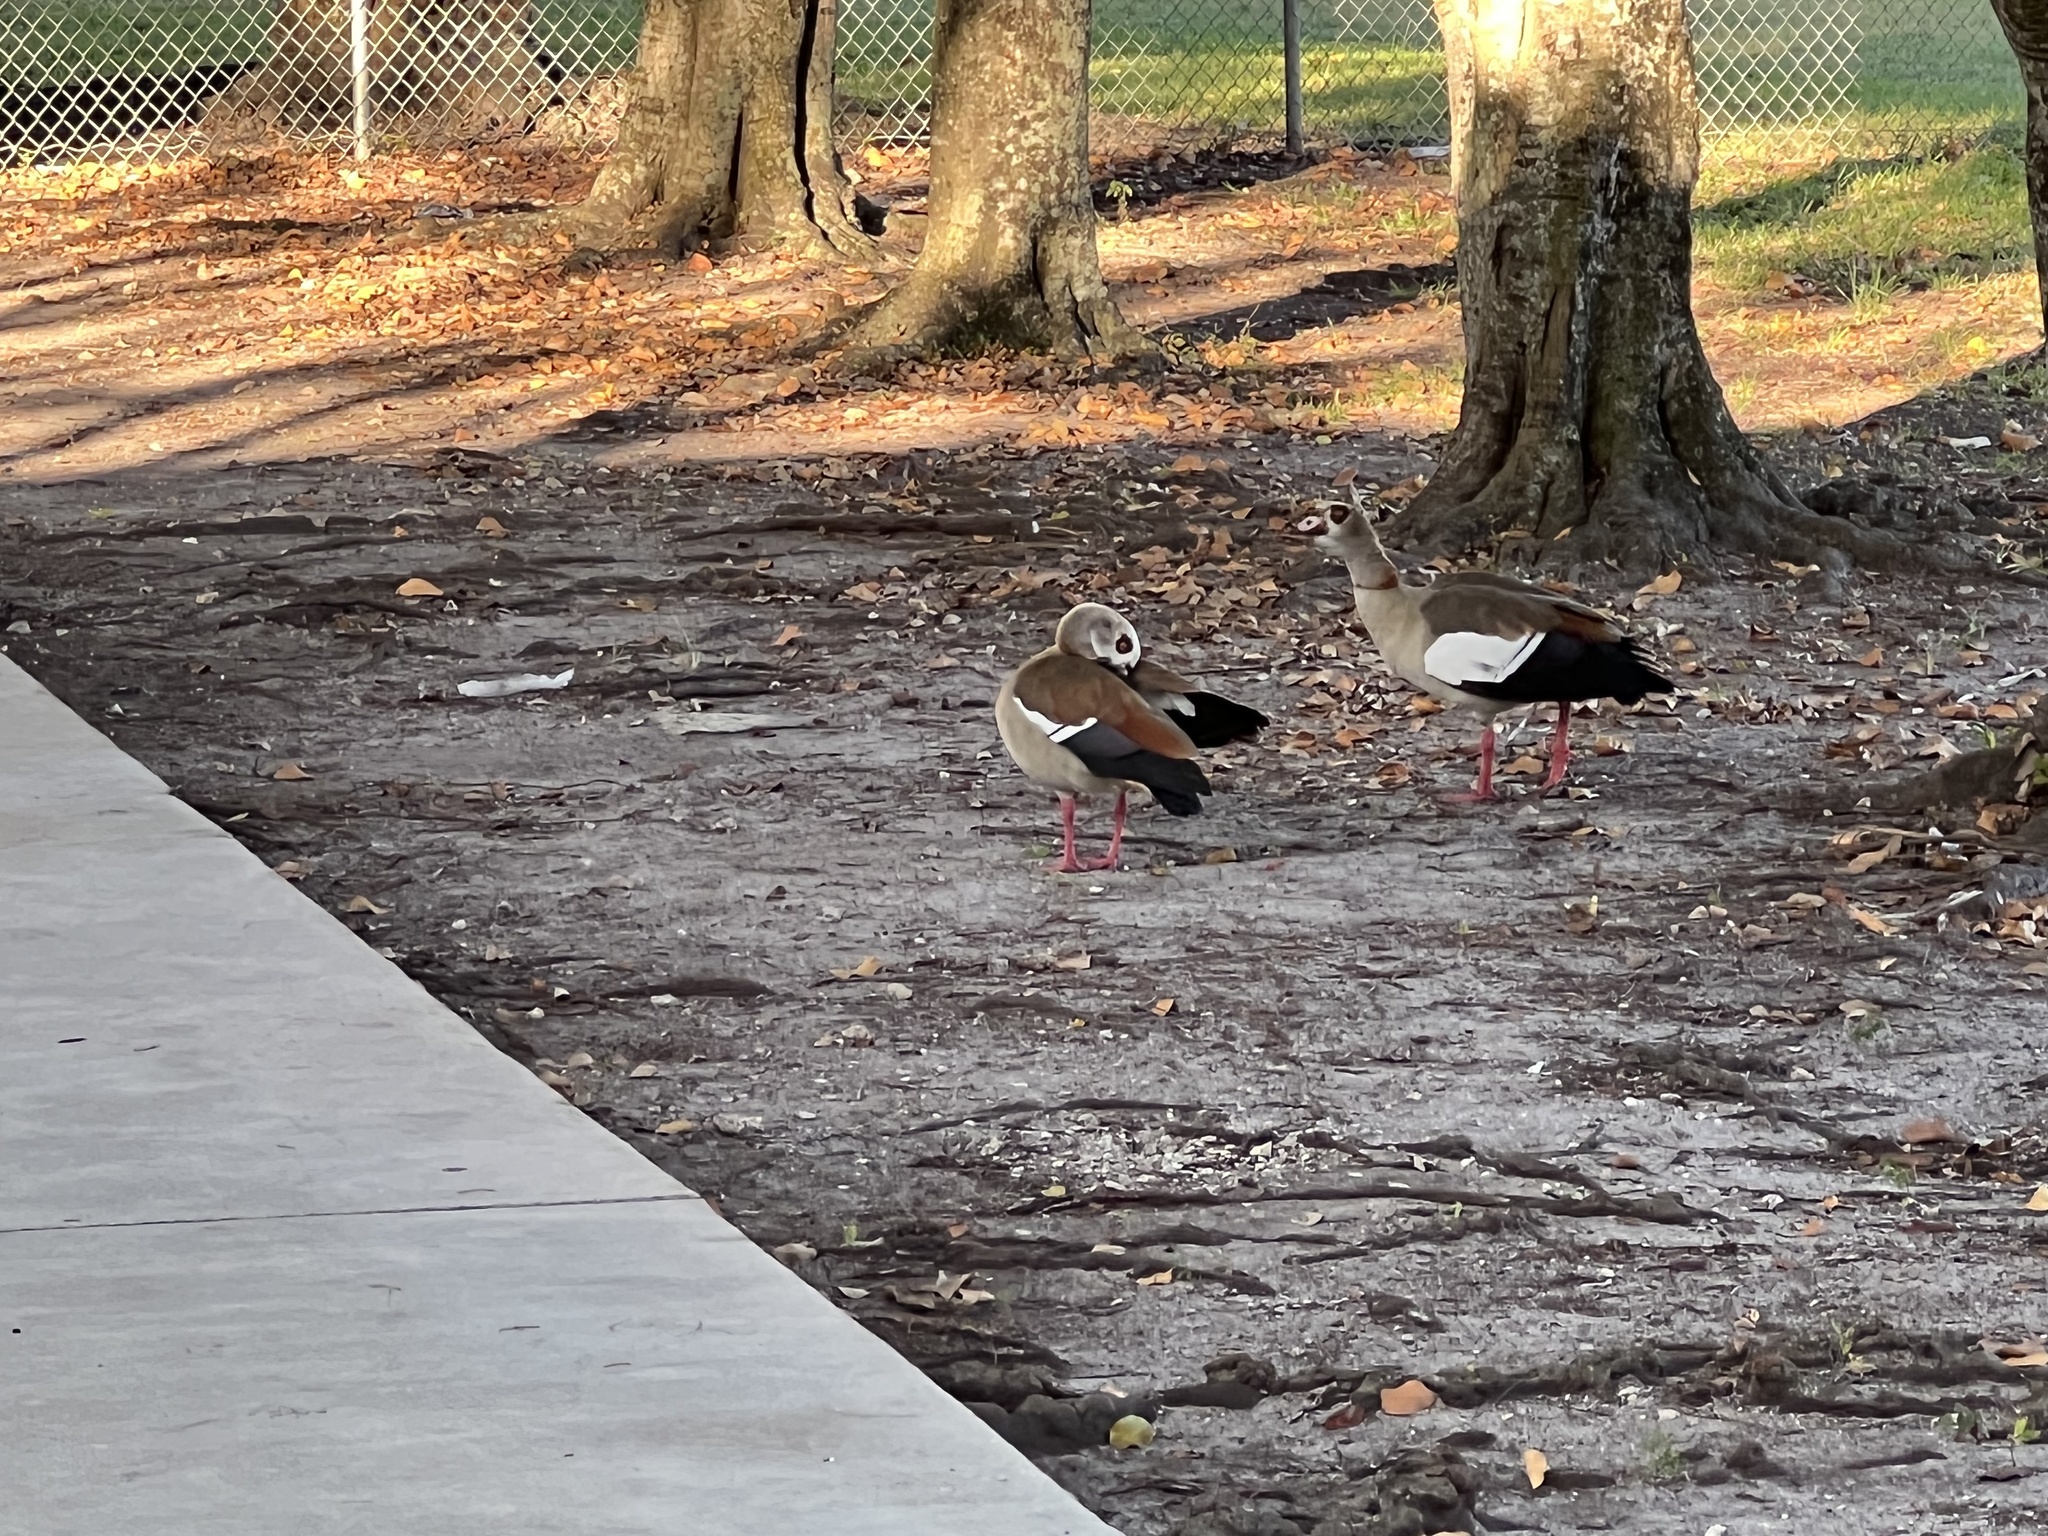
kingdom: Animalia
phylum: Chordata
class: Aves
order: Anseriformes
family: Anatidae
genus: Alopochen
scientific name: Alopochen aegyptiaca
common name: Egyptian goose
